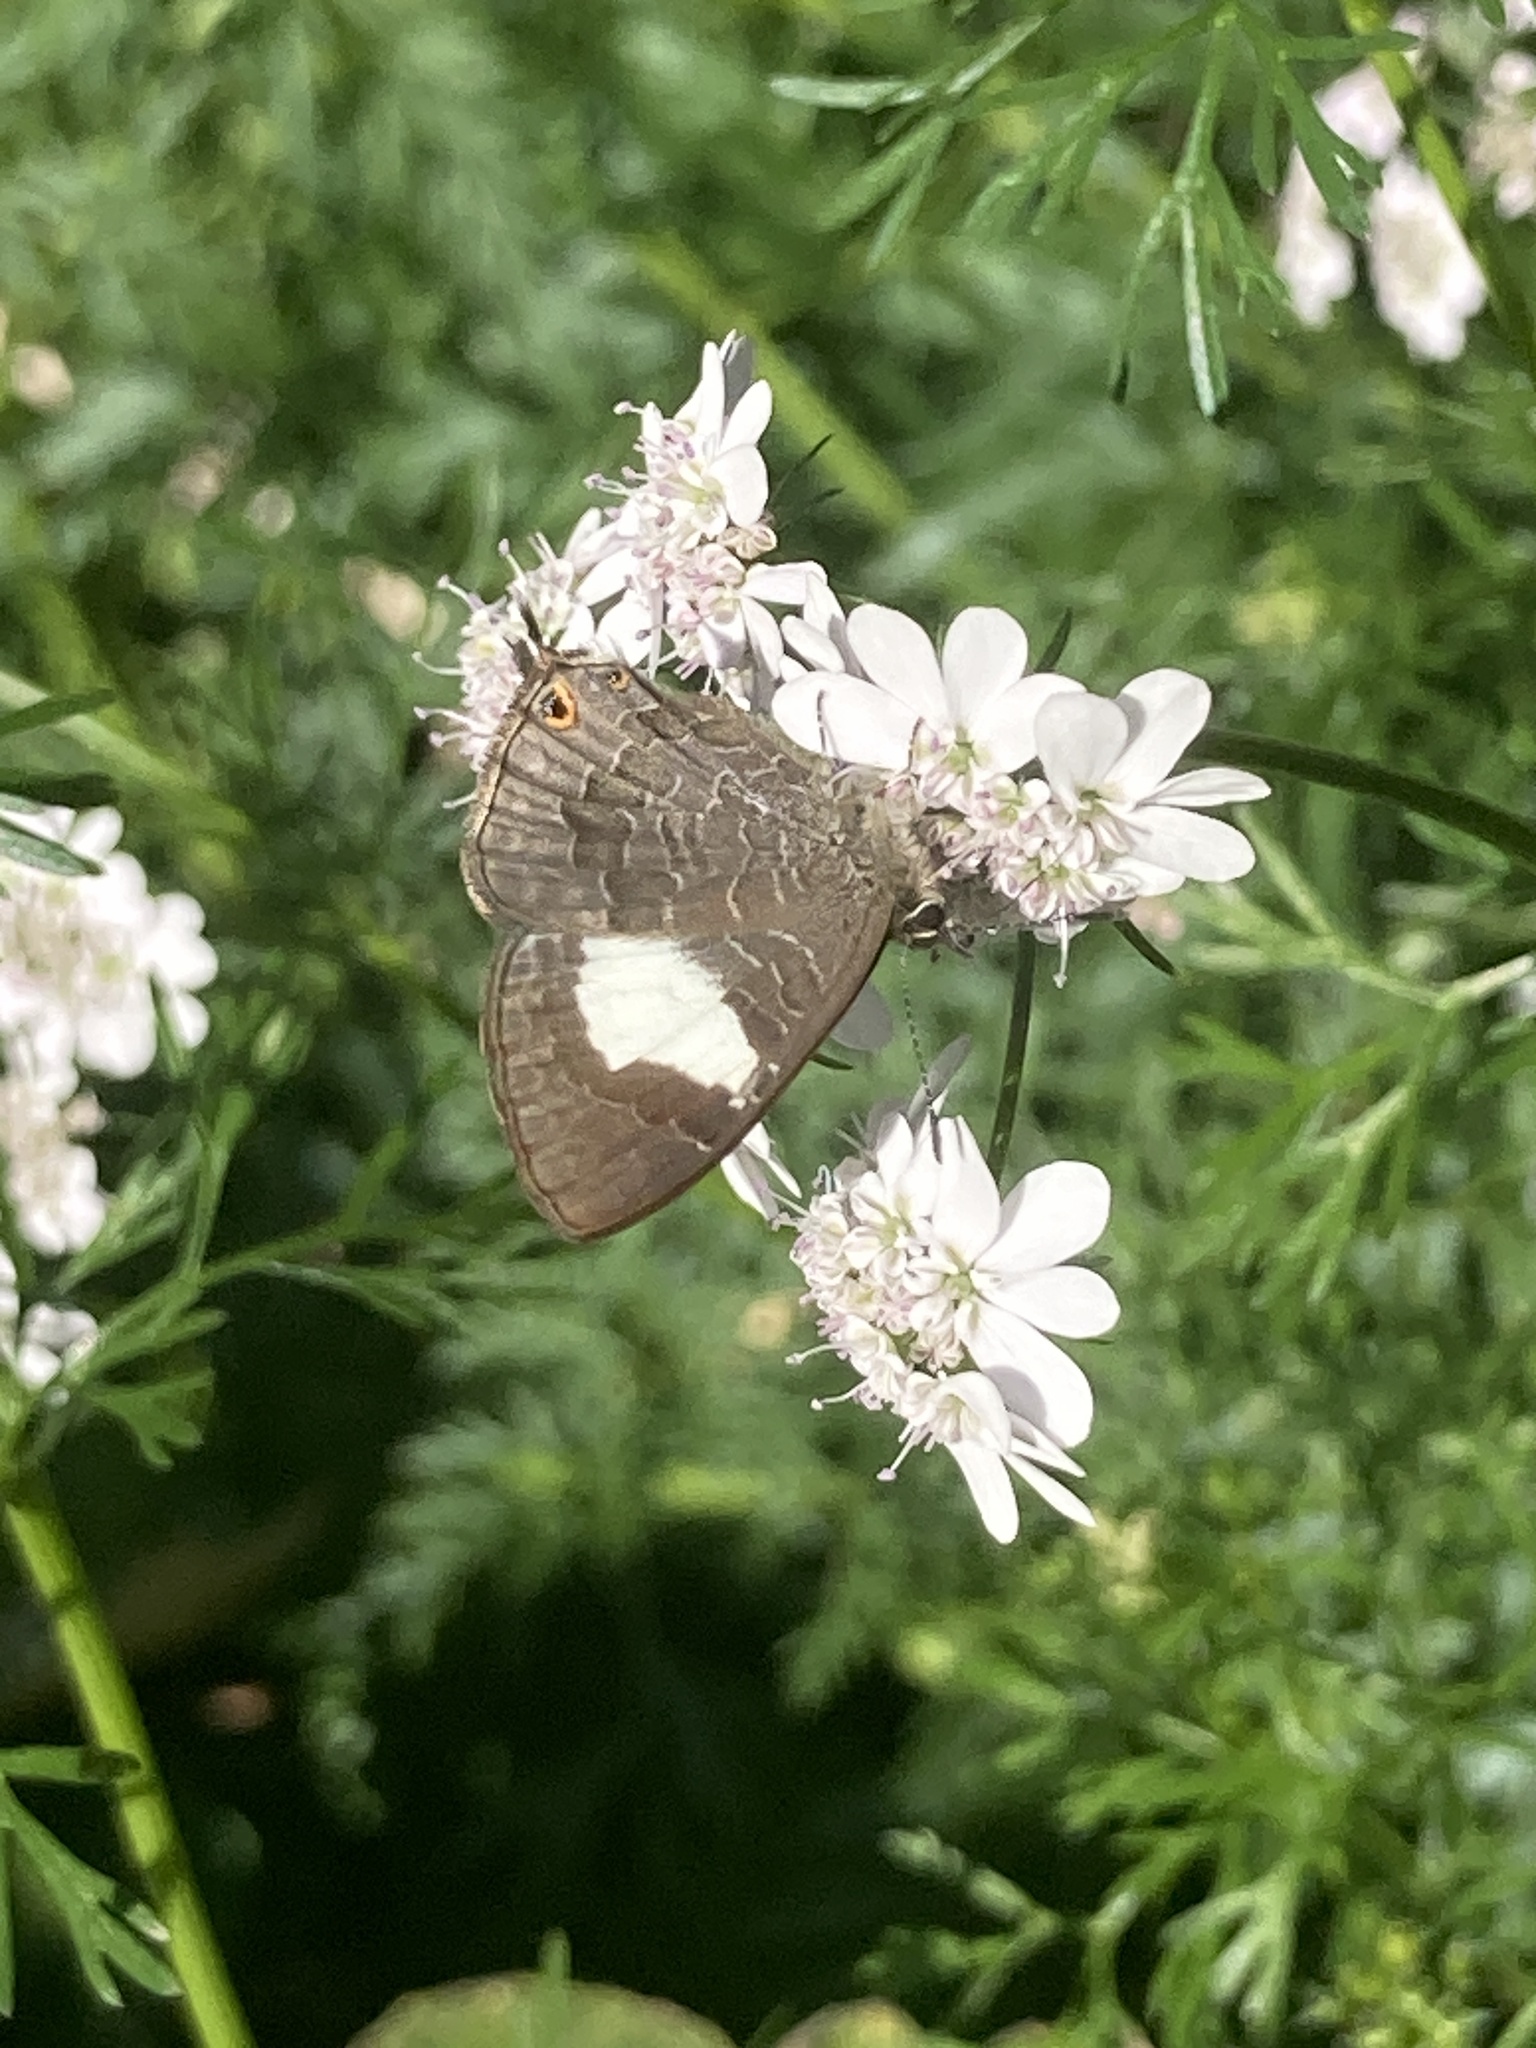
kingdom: Animalia
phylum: Arthropoda
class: Insecta
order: Lepidoptera
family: Lycaenidae
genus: Erysichton
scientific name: Erysichton lineata
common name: Hairy line blue
